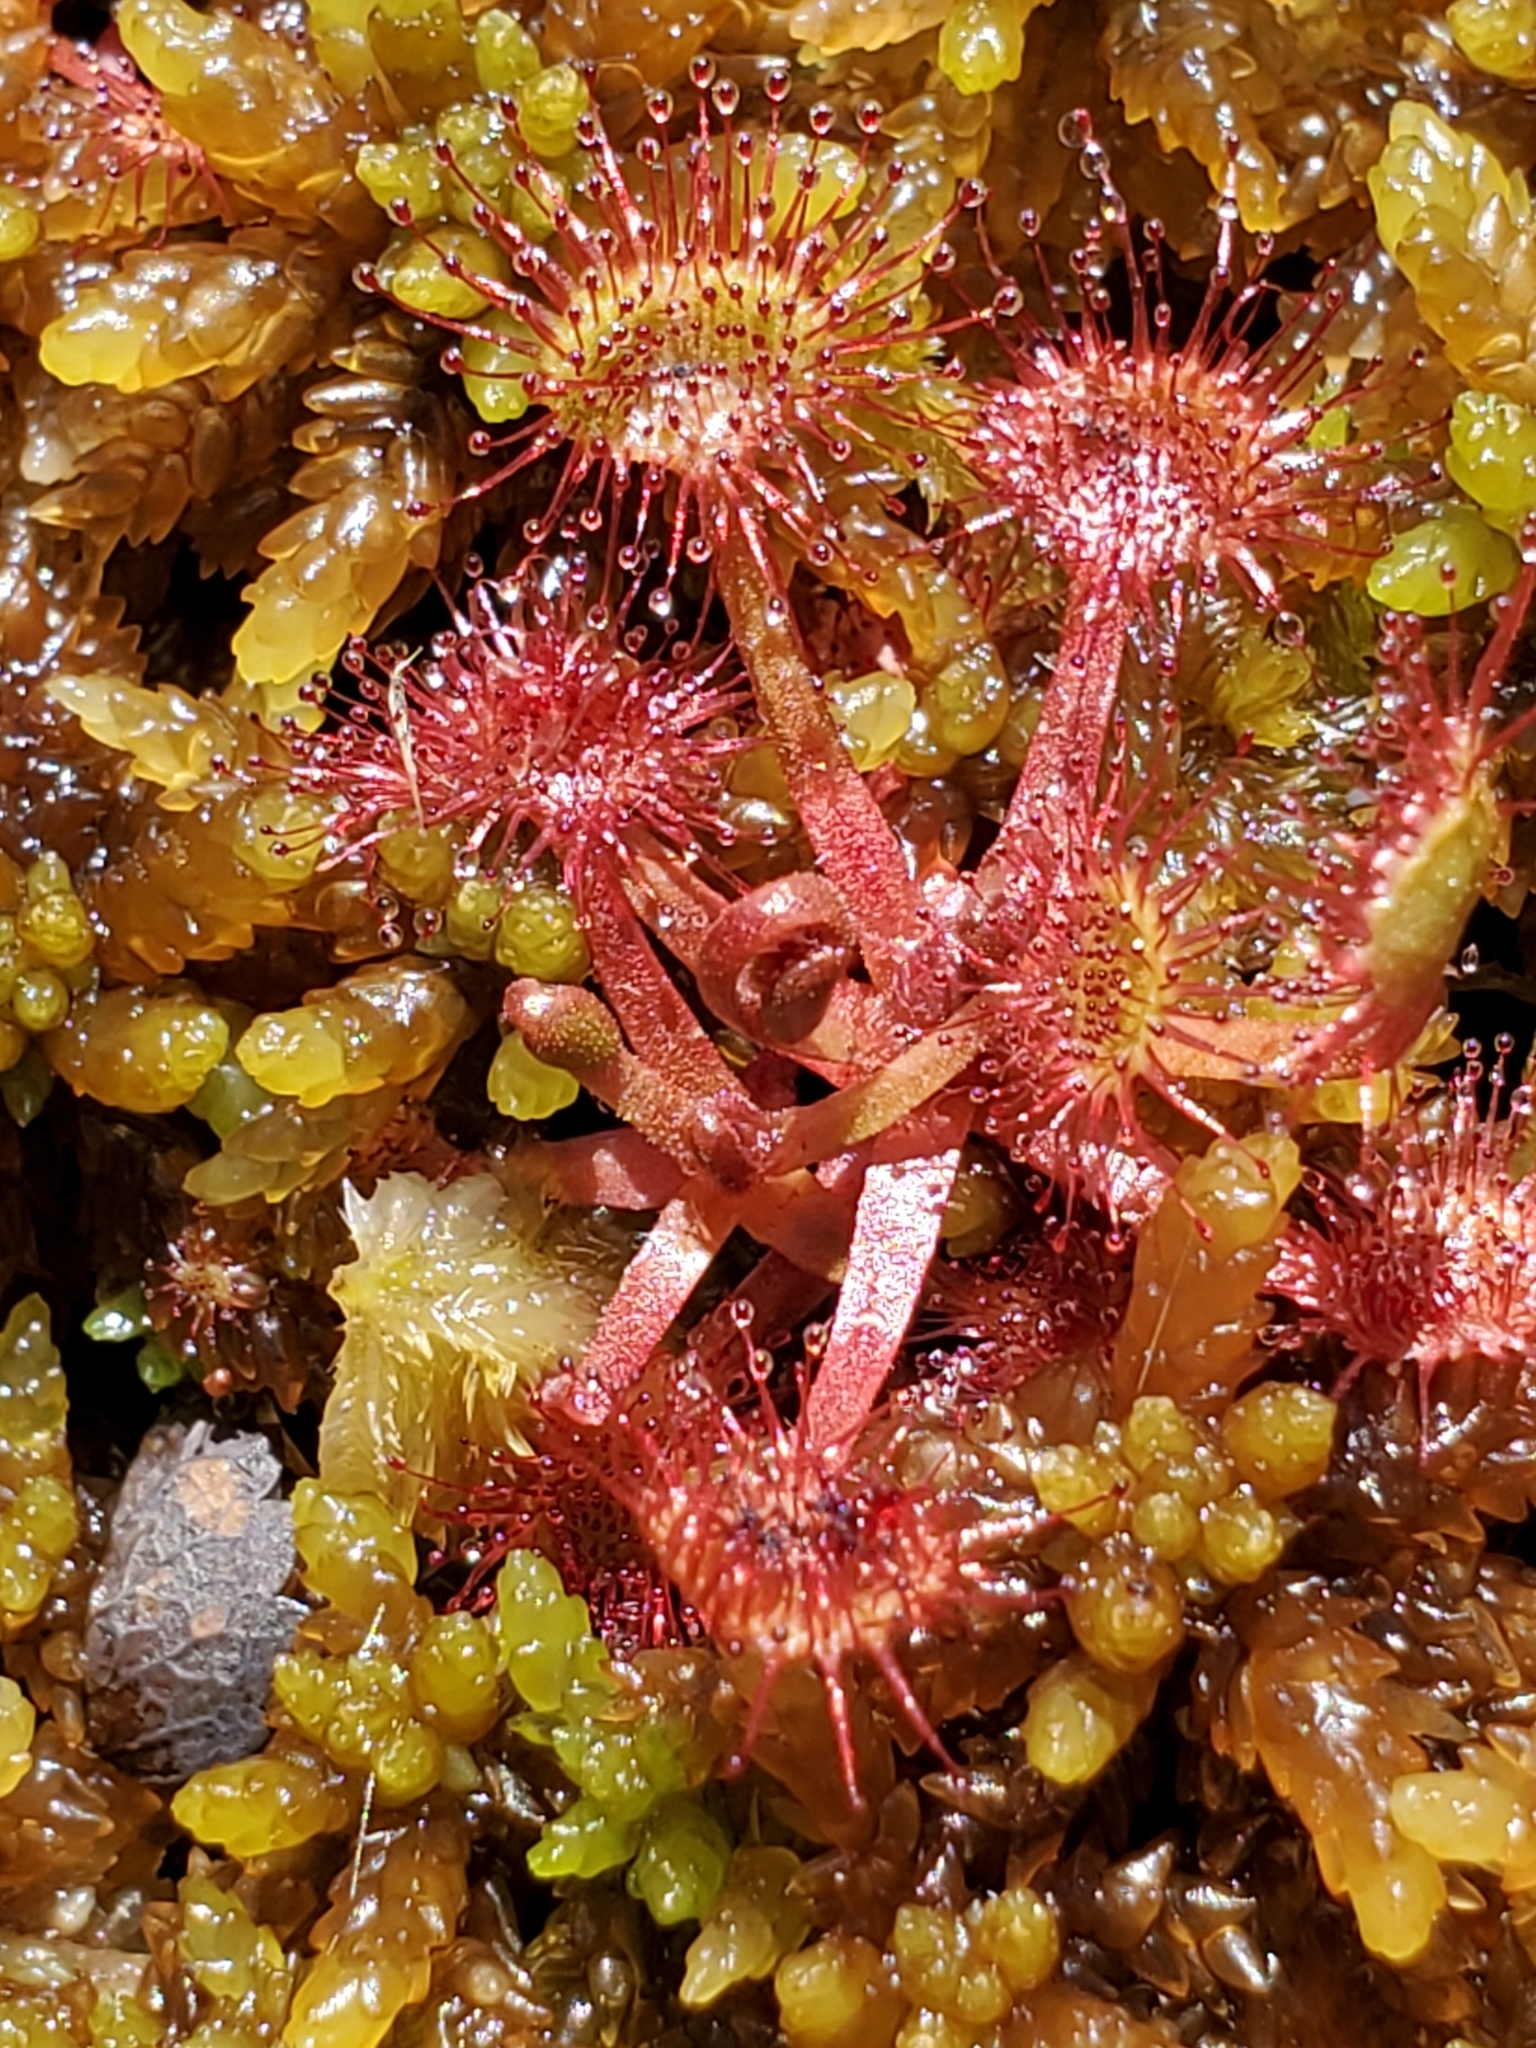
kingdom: Plantae
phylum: Tracheophyta
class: Magnoliopsida
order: Caryophyllales
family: Droseraceae
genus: Drosera
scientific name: Drosera rotundifolia
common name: Round-leaved sundew
